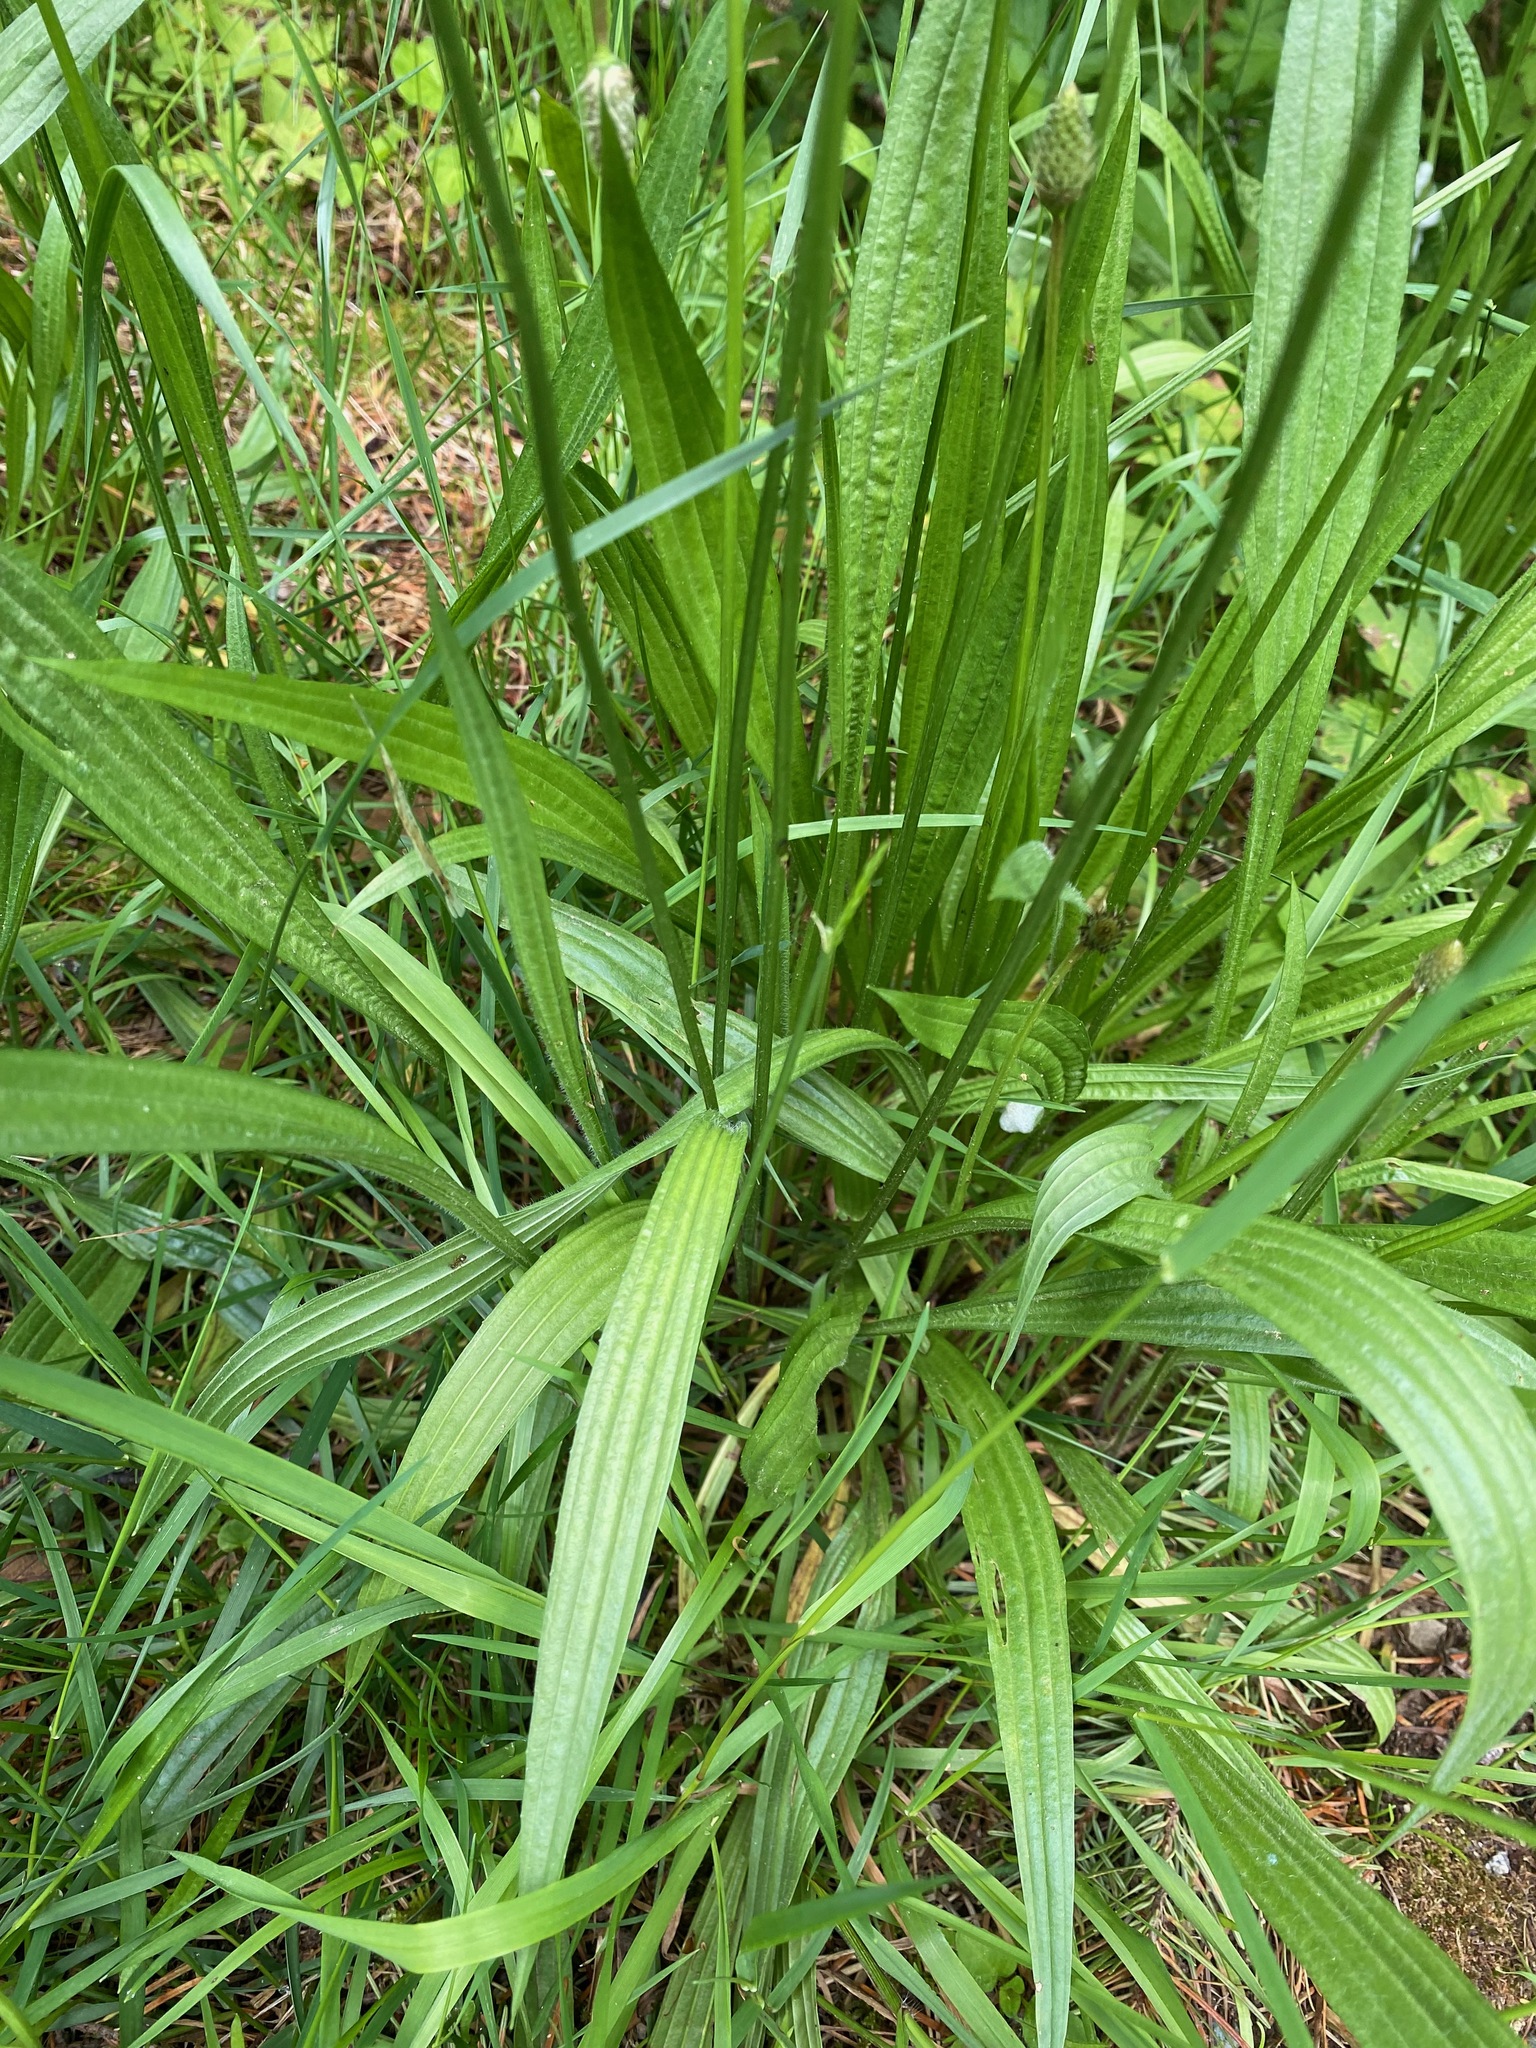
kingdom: Plantae
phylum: Tracheophyta
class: Magnoliopsida
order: Lamiales
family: Plantaginaceae
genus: Plantago
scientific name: Plantago lanceolata
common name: Ribwort plantain
